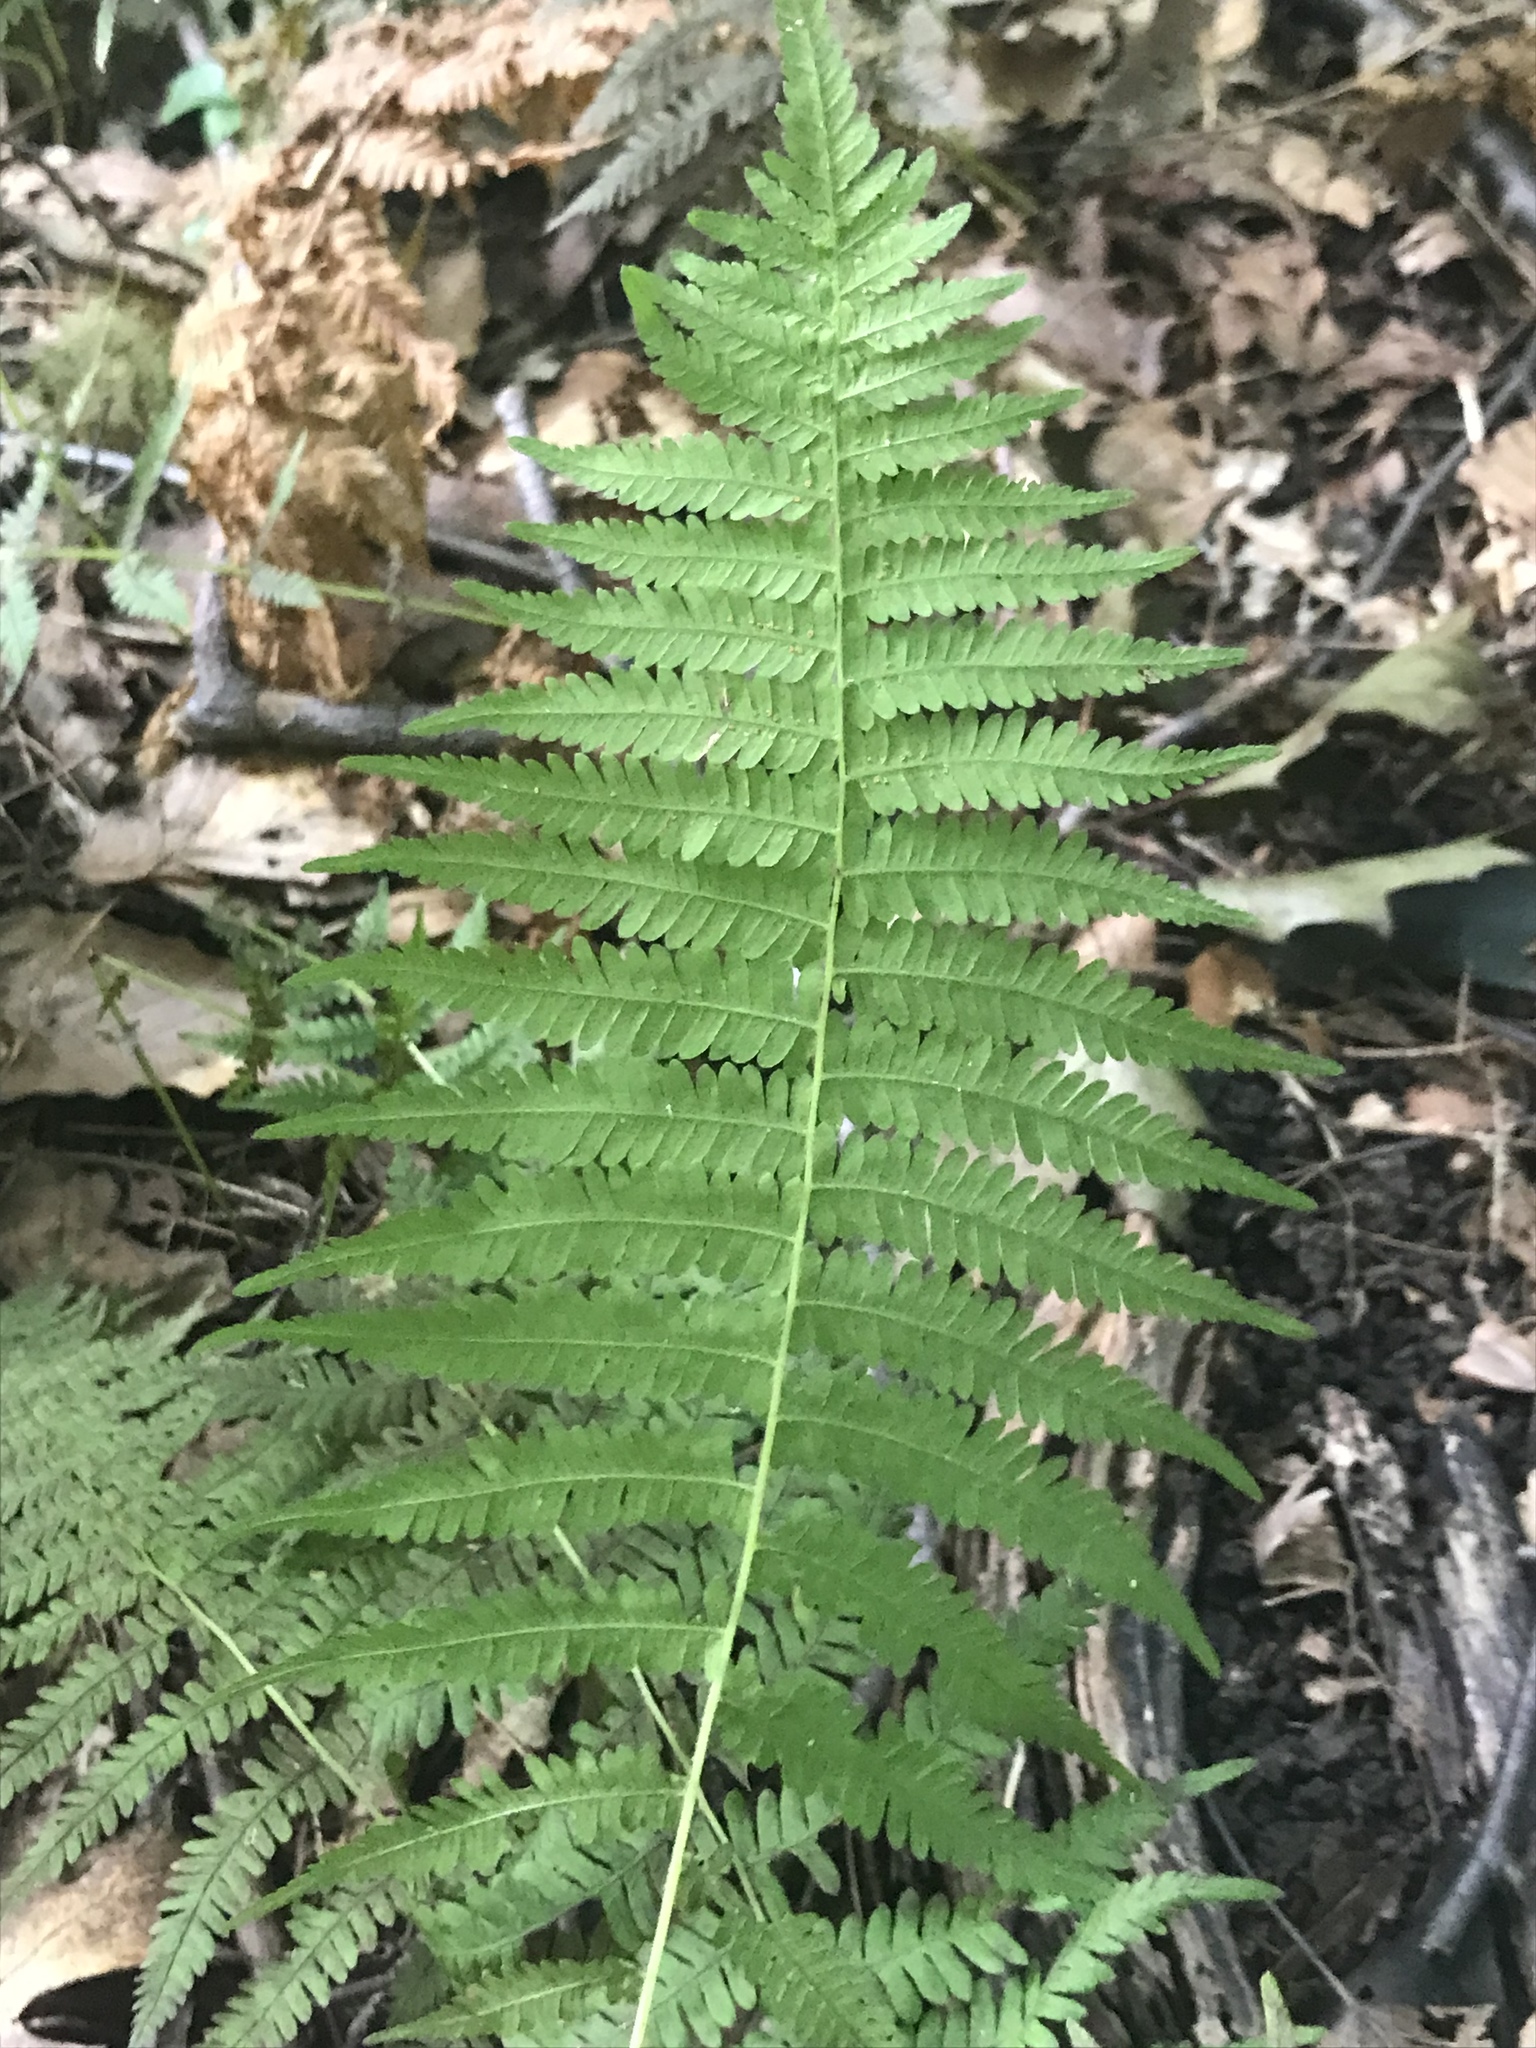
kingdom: Plantae
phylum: Tracheophyta
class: Polypodiopsida
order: Polypodiales
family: Thelypteridaceae
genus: Amauropelta
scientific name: Amauropelta noveboracensis
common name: New york fern
